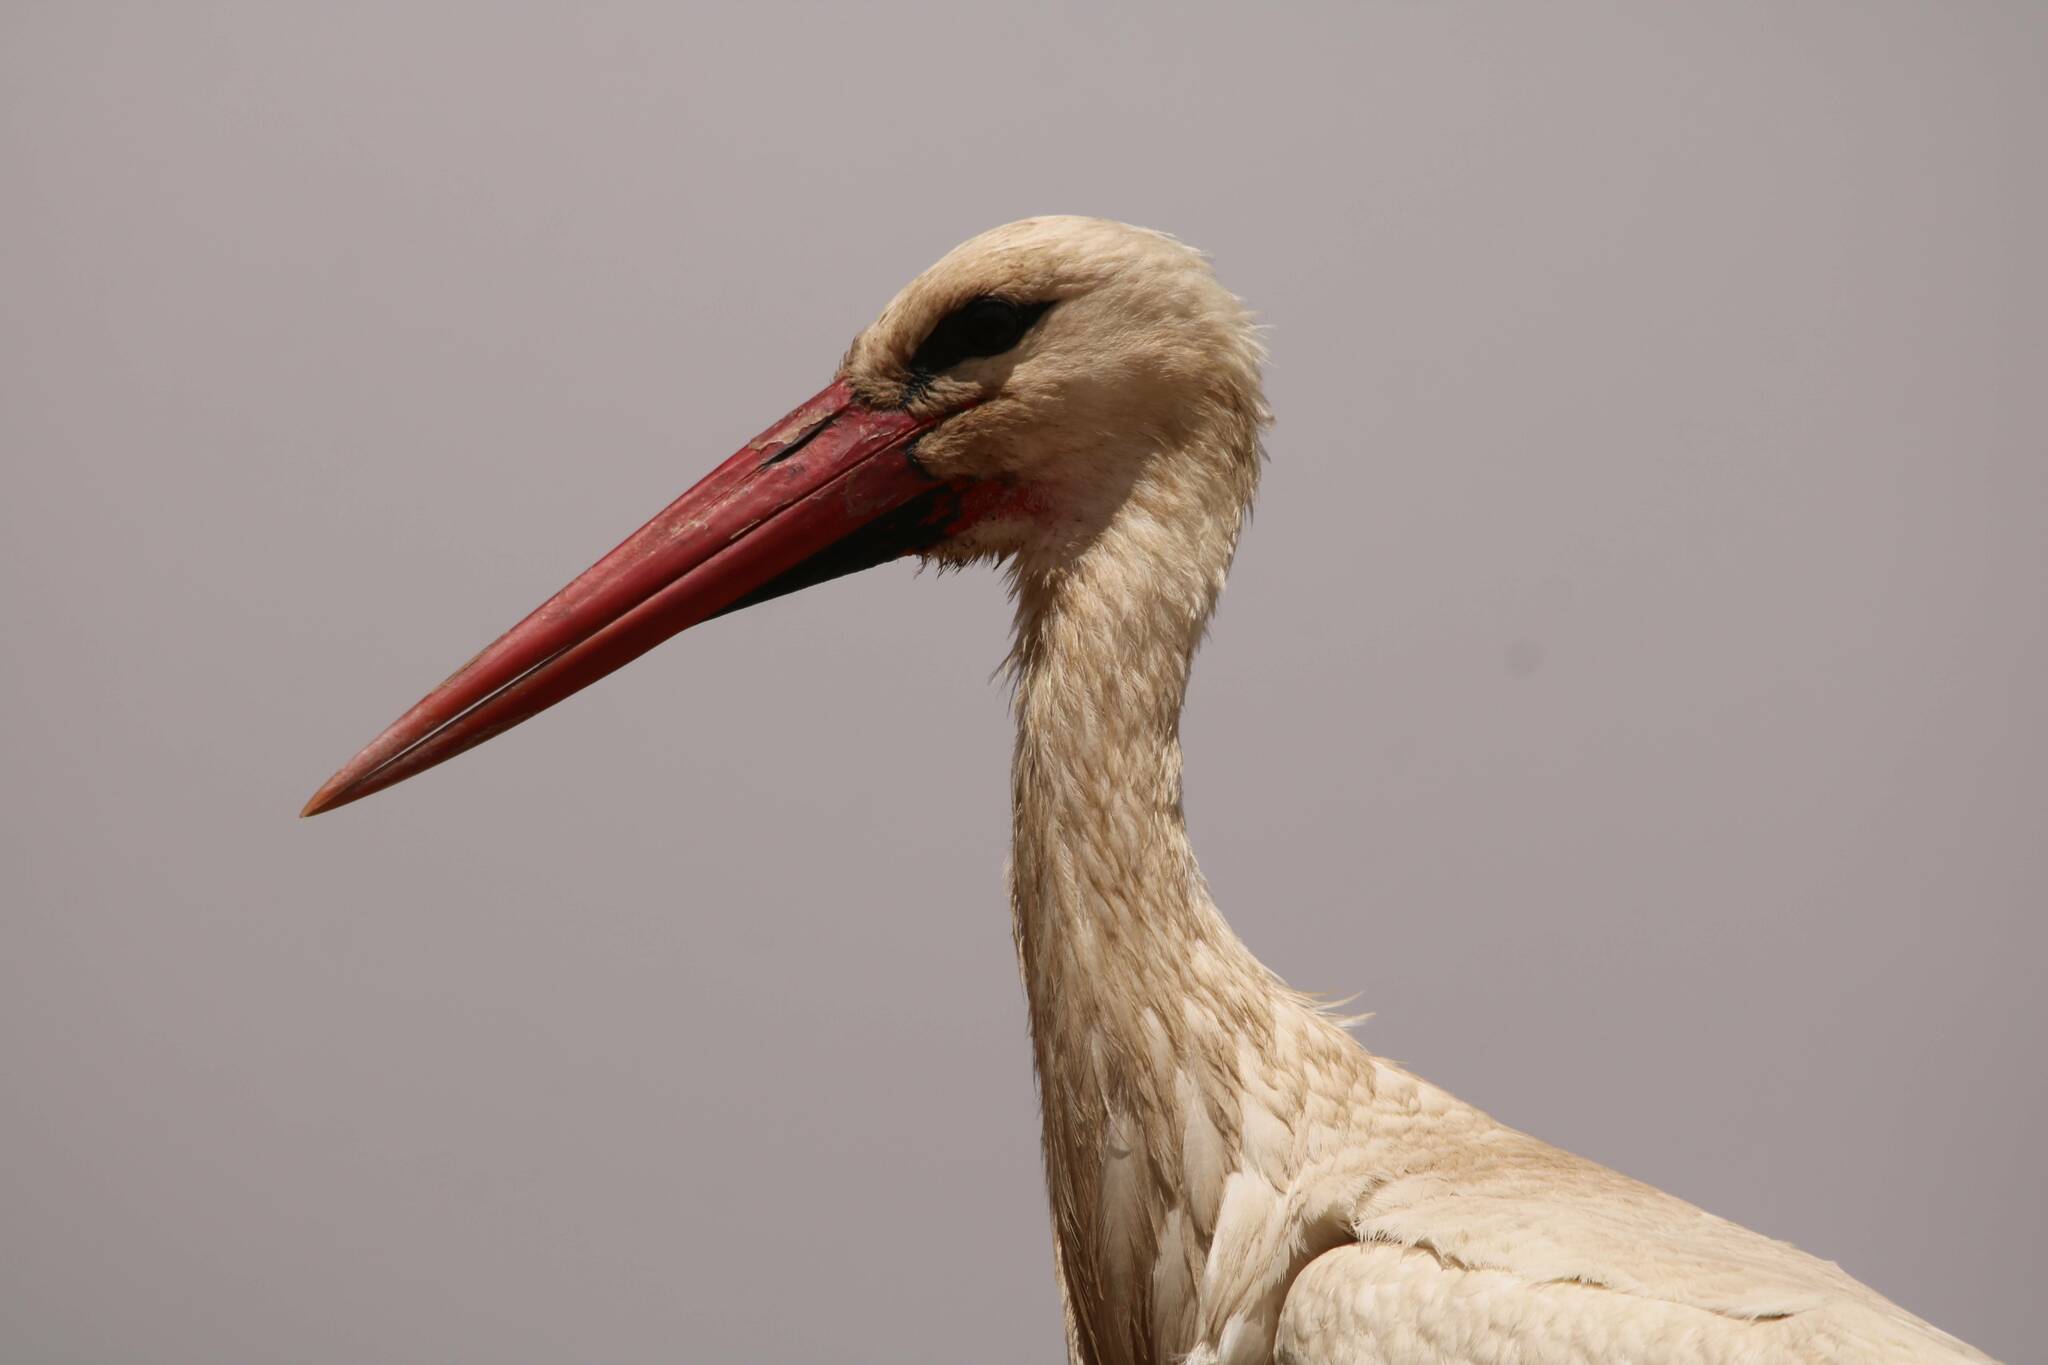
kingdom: Animalia
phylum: Chordata
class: Aves
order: Ciconiiformes
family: Ciconiidae
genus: Ciconia
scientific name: Ciconia ciconia
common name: White stork
